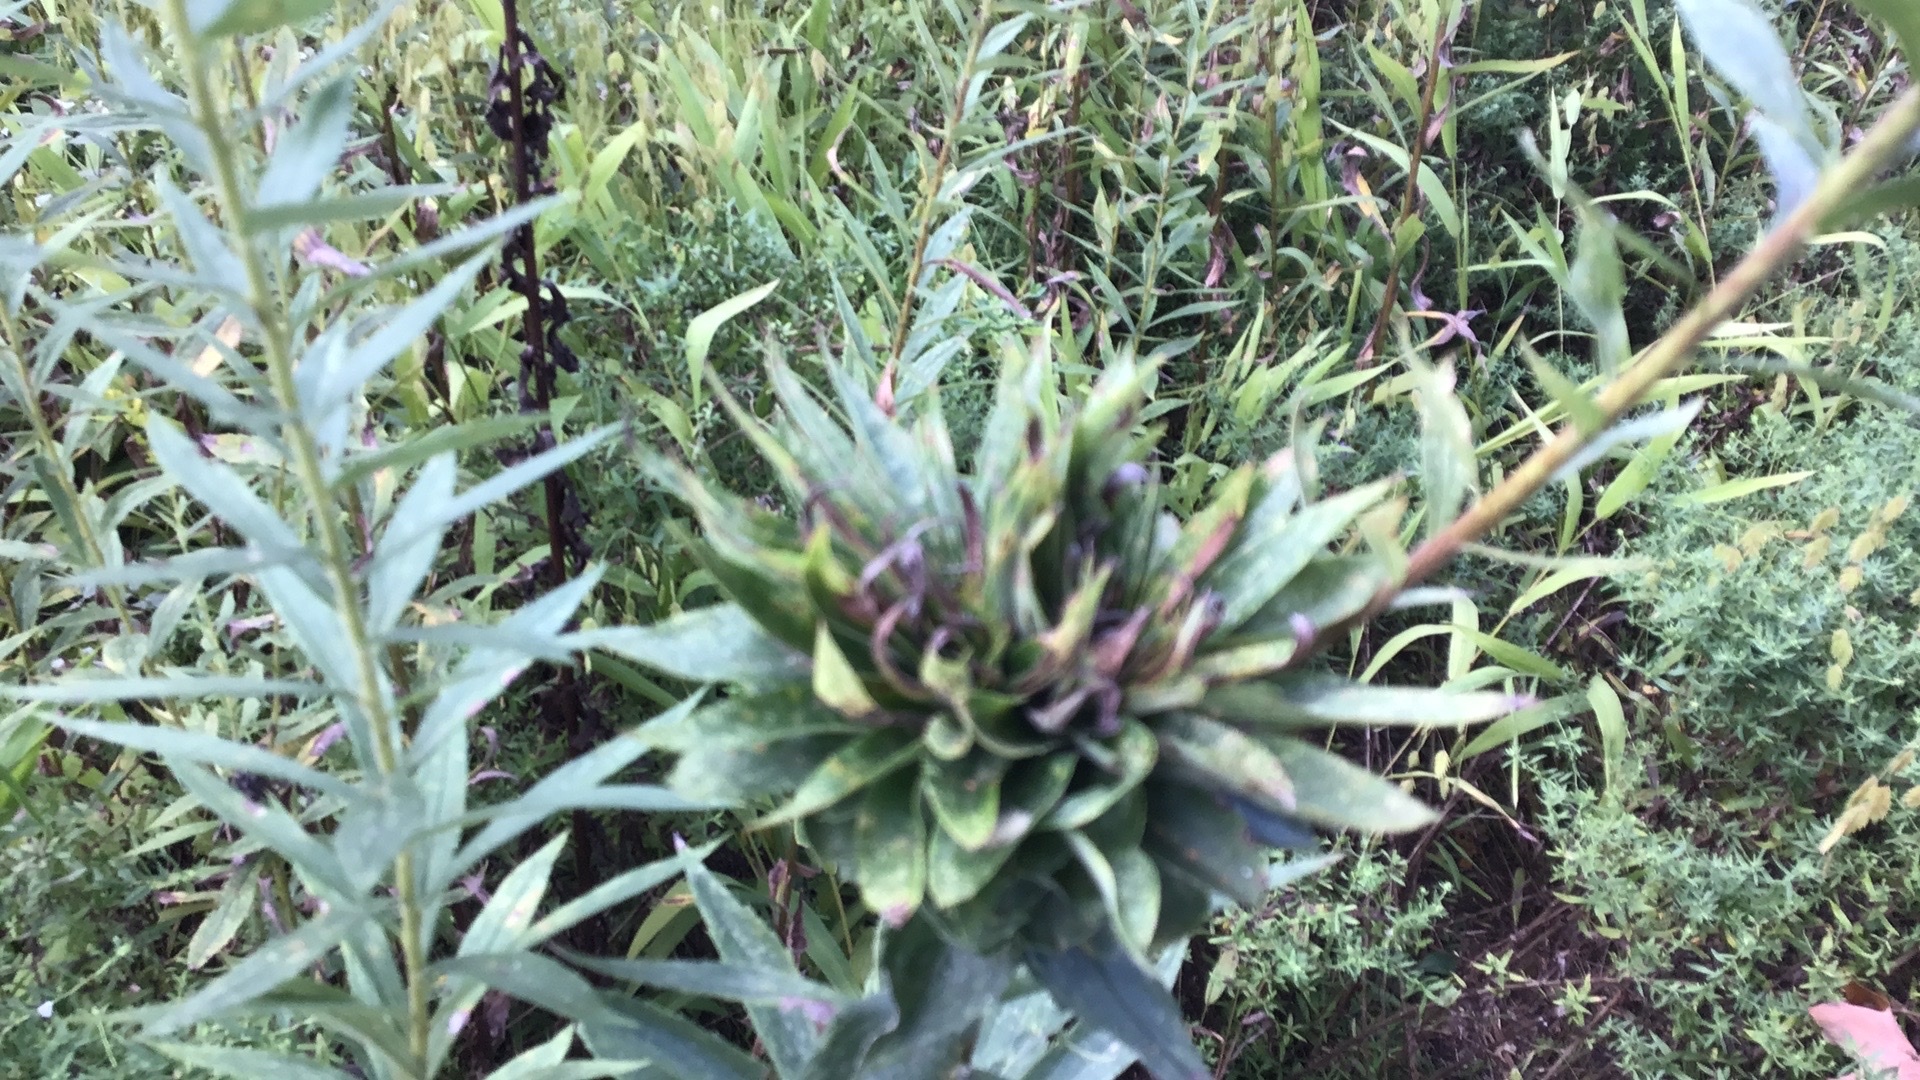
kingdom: Animalia
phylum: Arthropoda
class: Insecta
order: Diptera
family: Cecidomyiidae
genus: Rhopalomyia
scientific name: Rhopalomyia solidaginis
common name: Goldenrod bunch gall midge
